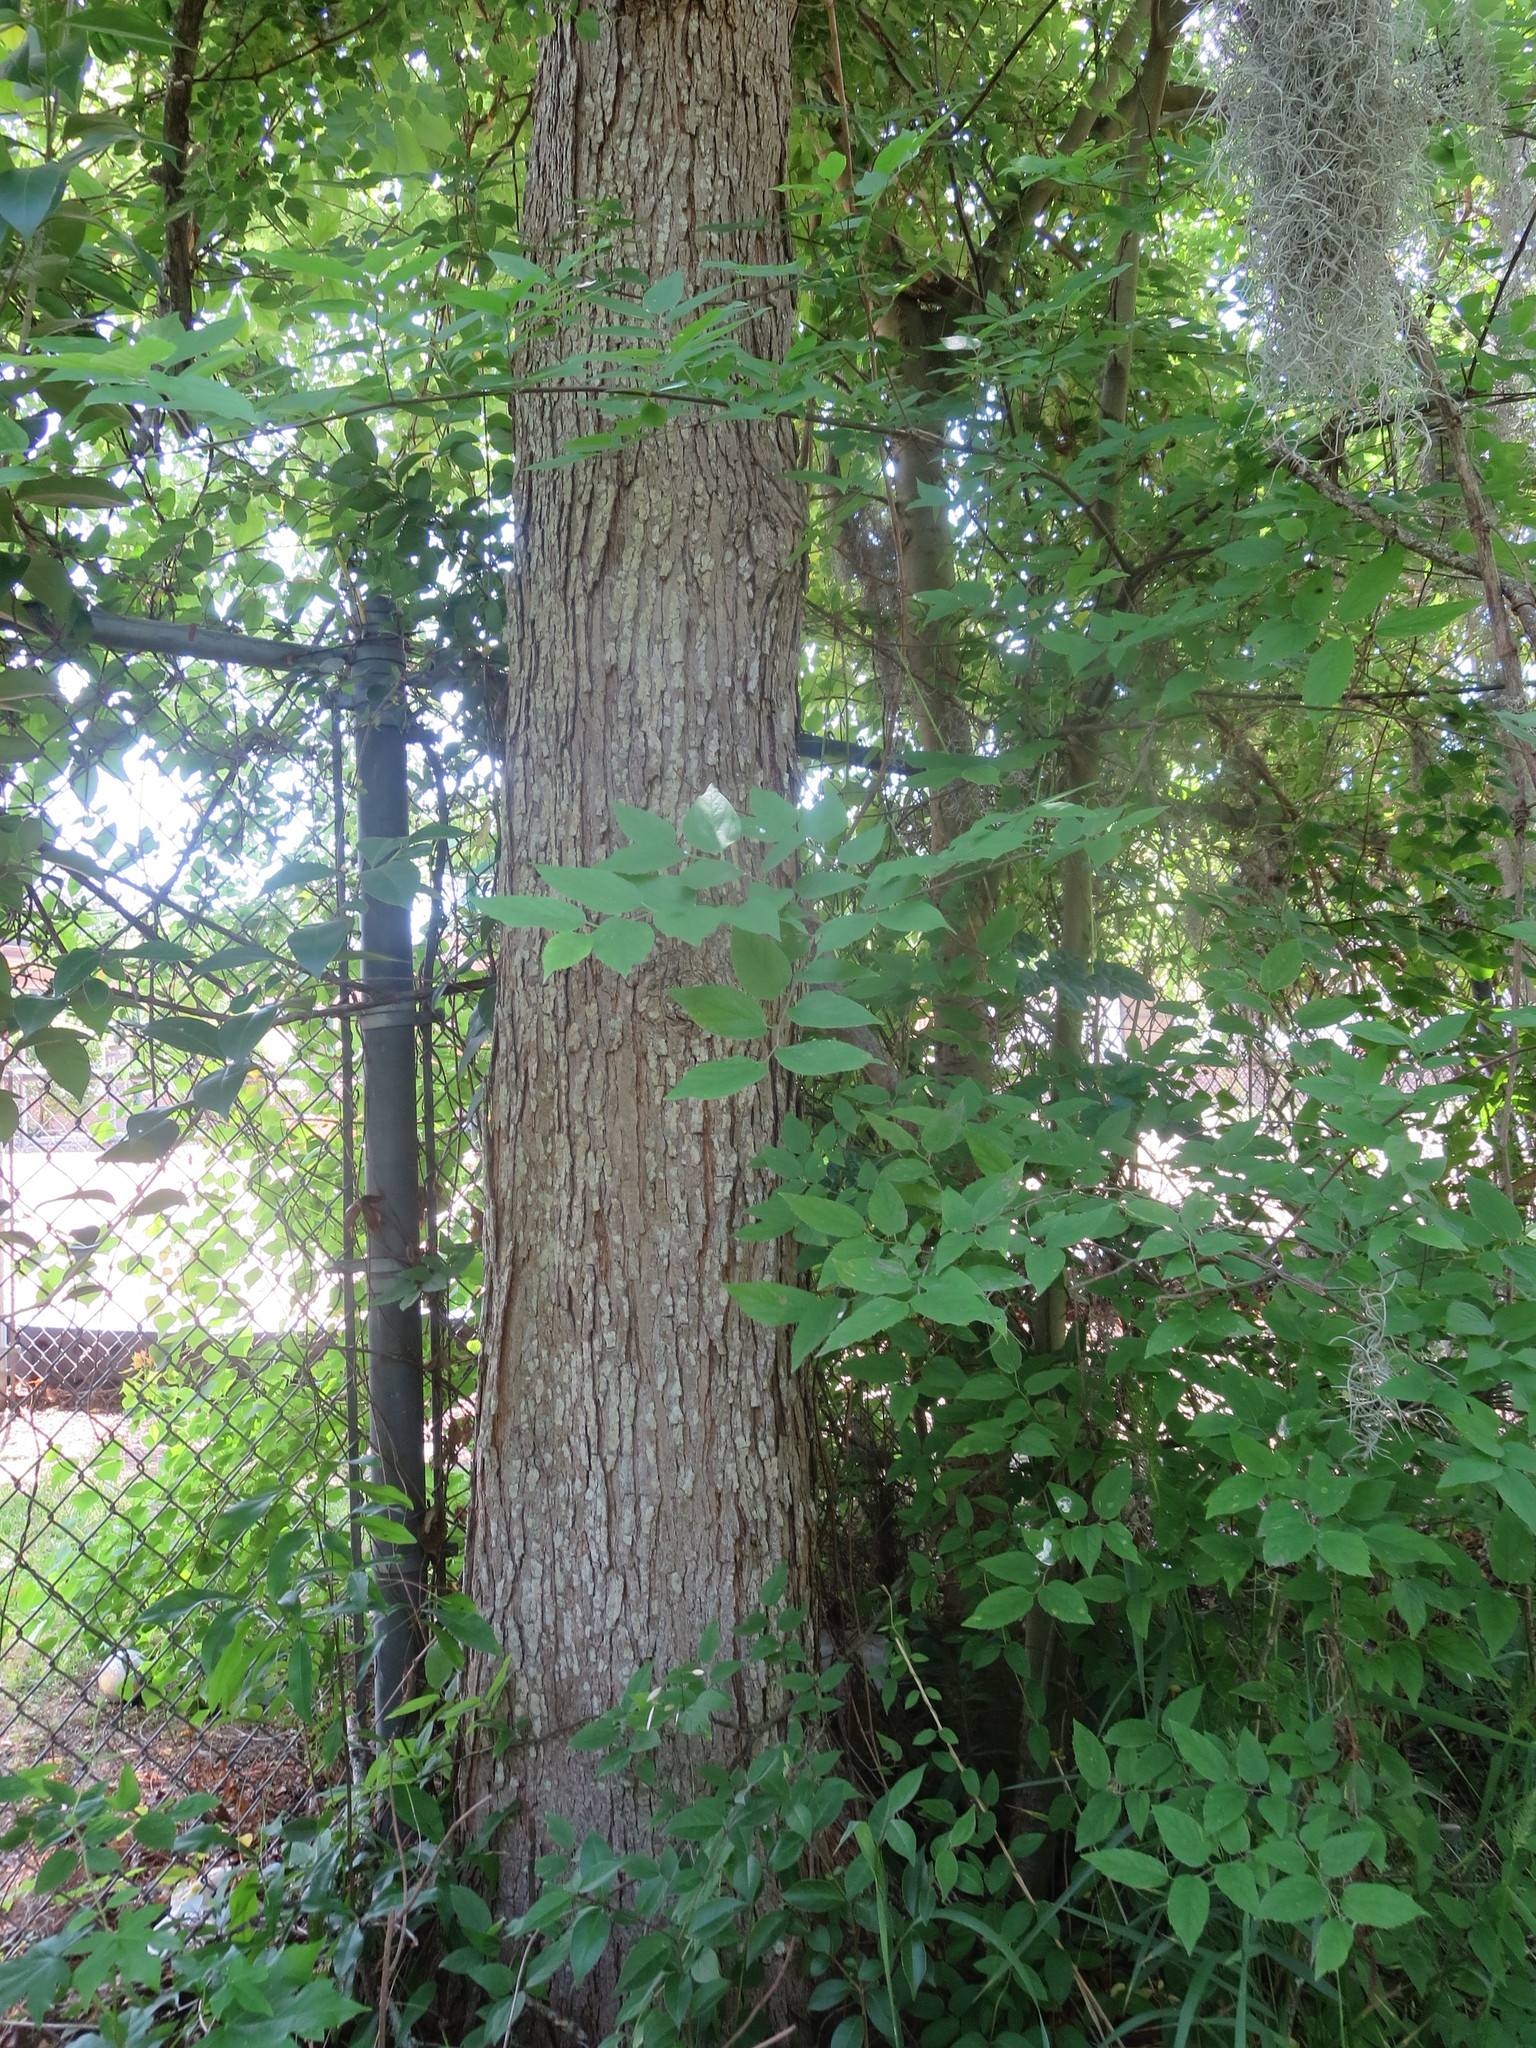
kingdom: Plantae
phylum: Tracheophyta
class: Magnoliopsida
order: Malpighiales
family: Euphorbiaceae
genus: Triadica
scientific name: Triadica sebifera
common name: Chinese tallow
